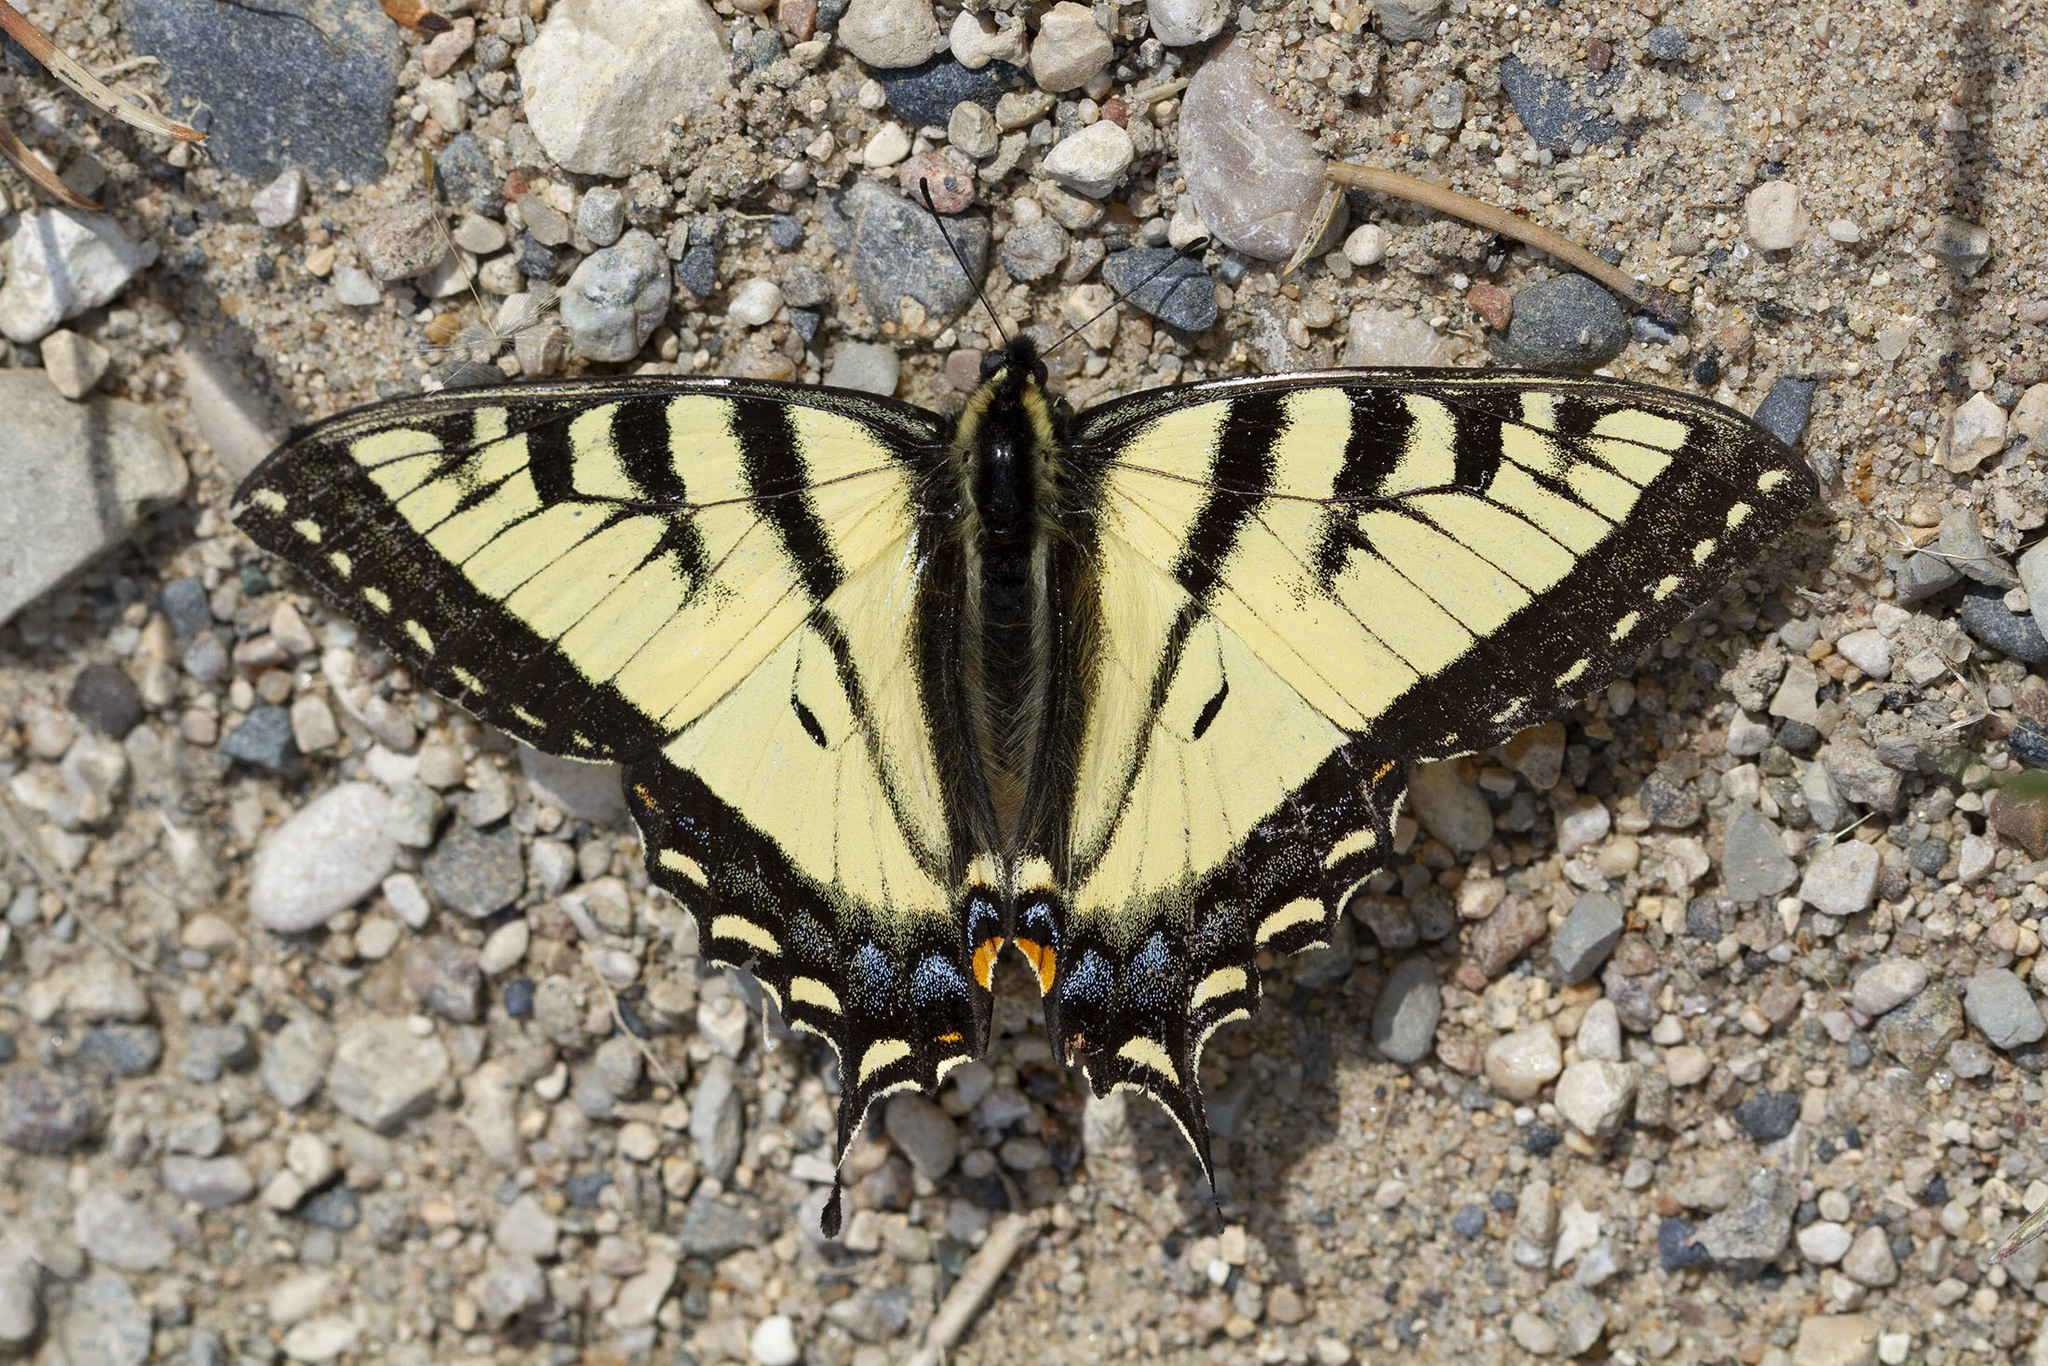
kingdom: Animalia
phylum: Arthropoda
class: Insecta
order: Lepidoptera
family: Papilionidae
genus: Papilio
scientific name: Papilio canadensis
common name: Canadian tiger swallowtail
